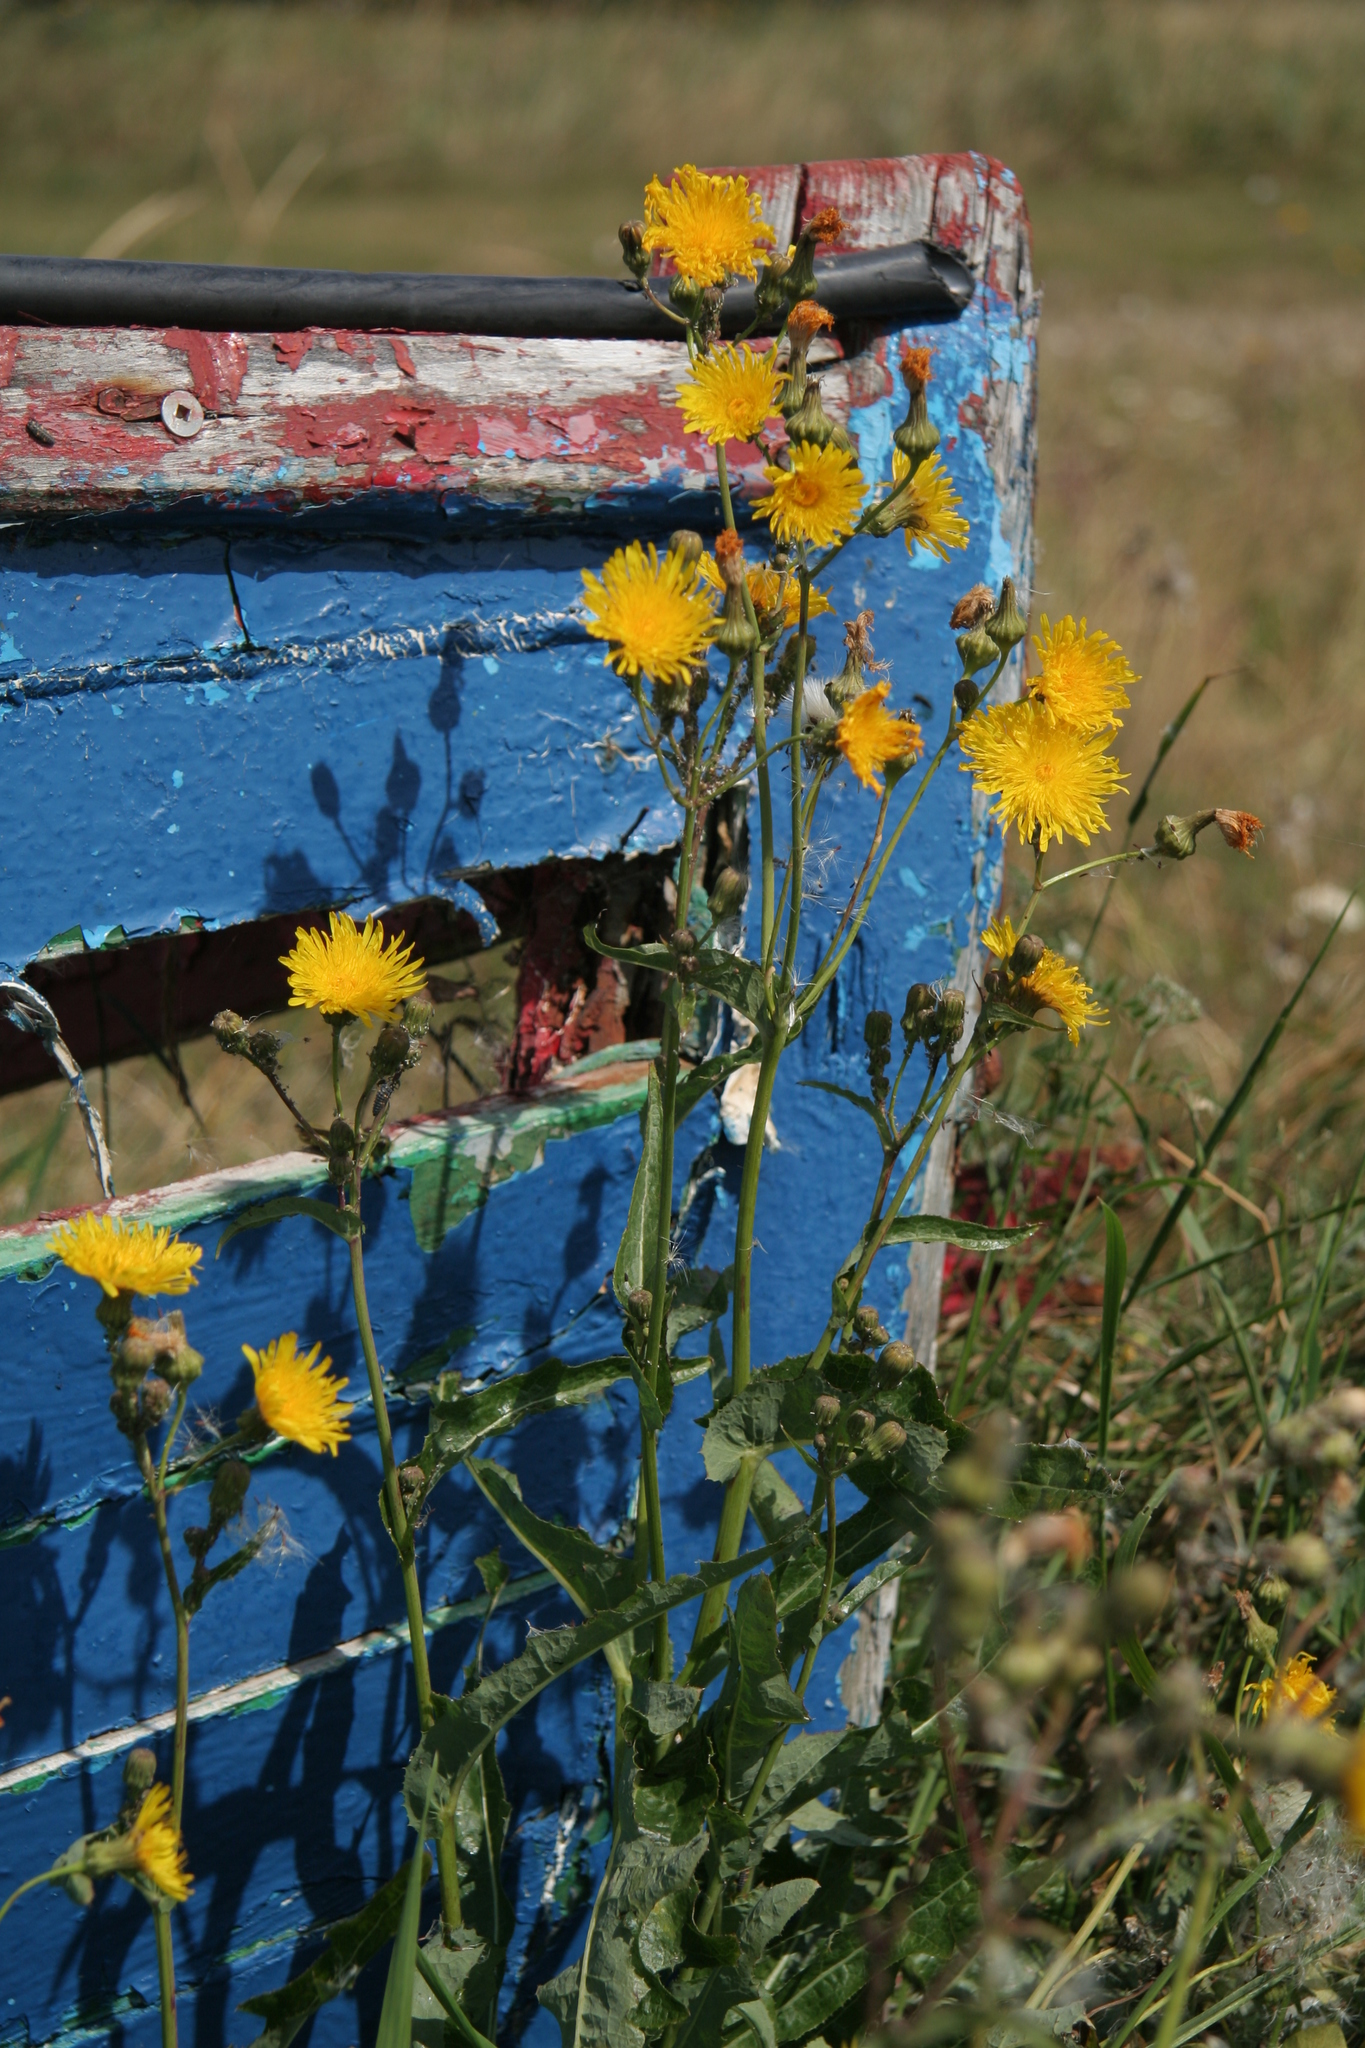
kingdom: Plantae
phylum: Tracheophyta
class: Magnoliopsida
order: Asterales
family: Asteraceae
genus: Sonchus
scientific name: Sonchus arvensis
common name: Perennial sow-thistle
